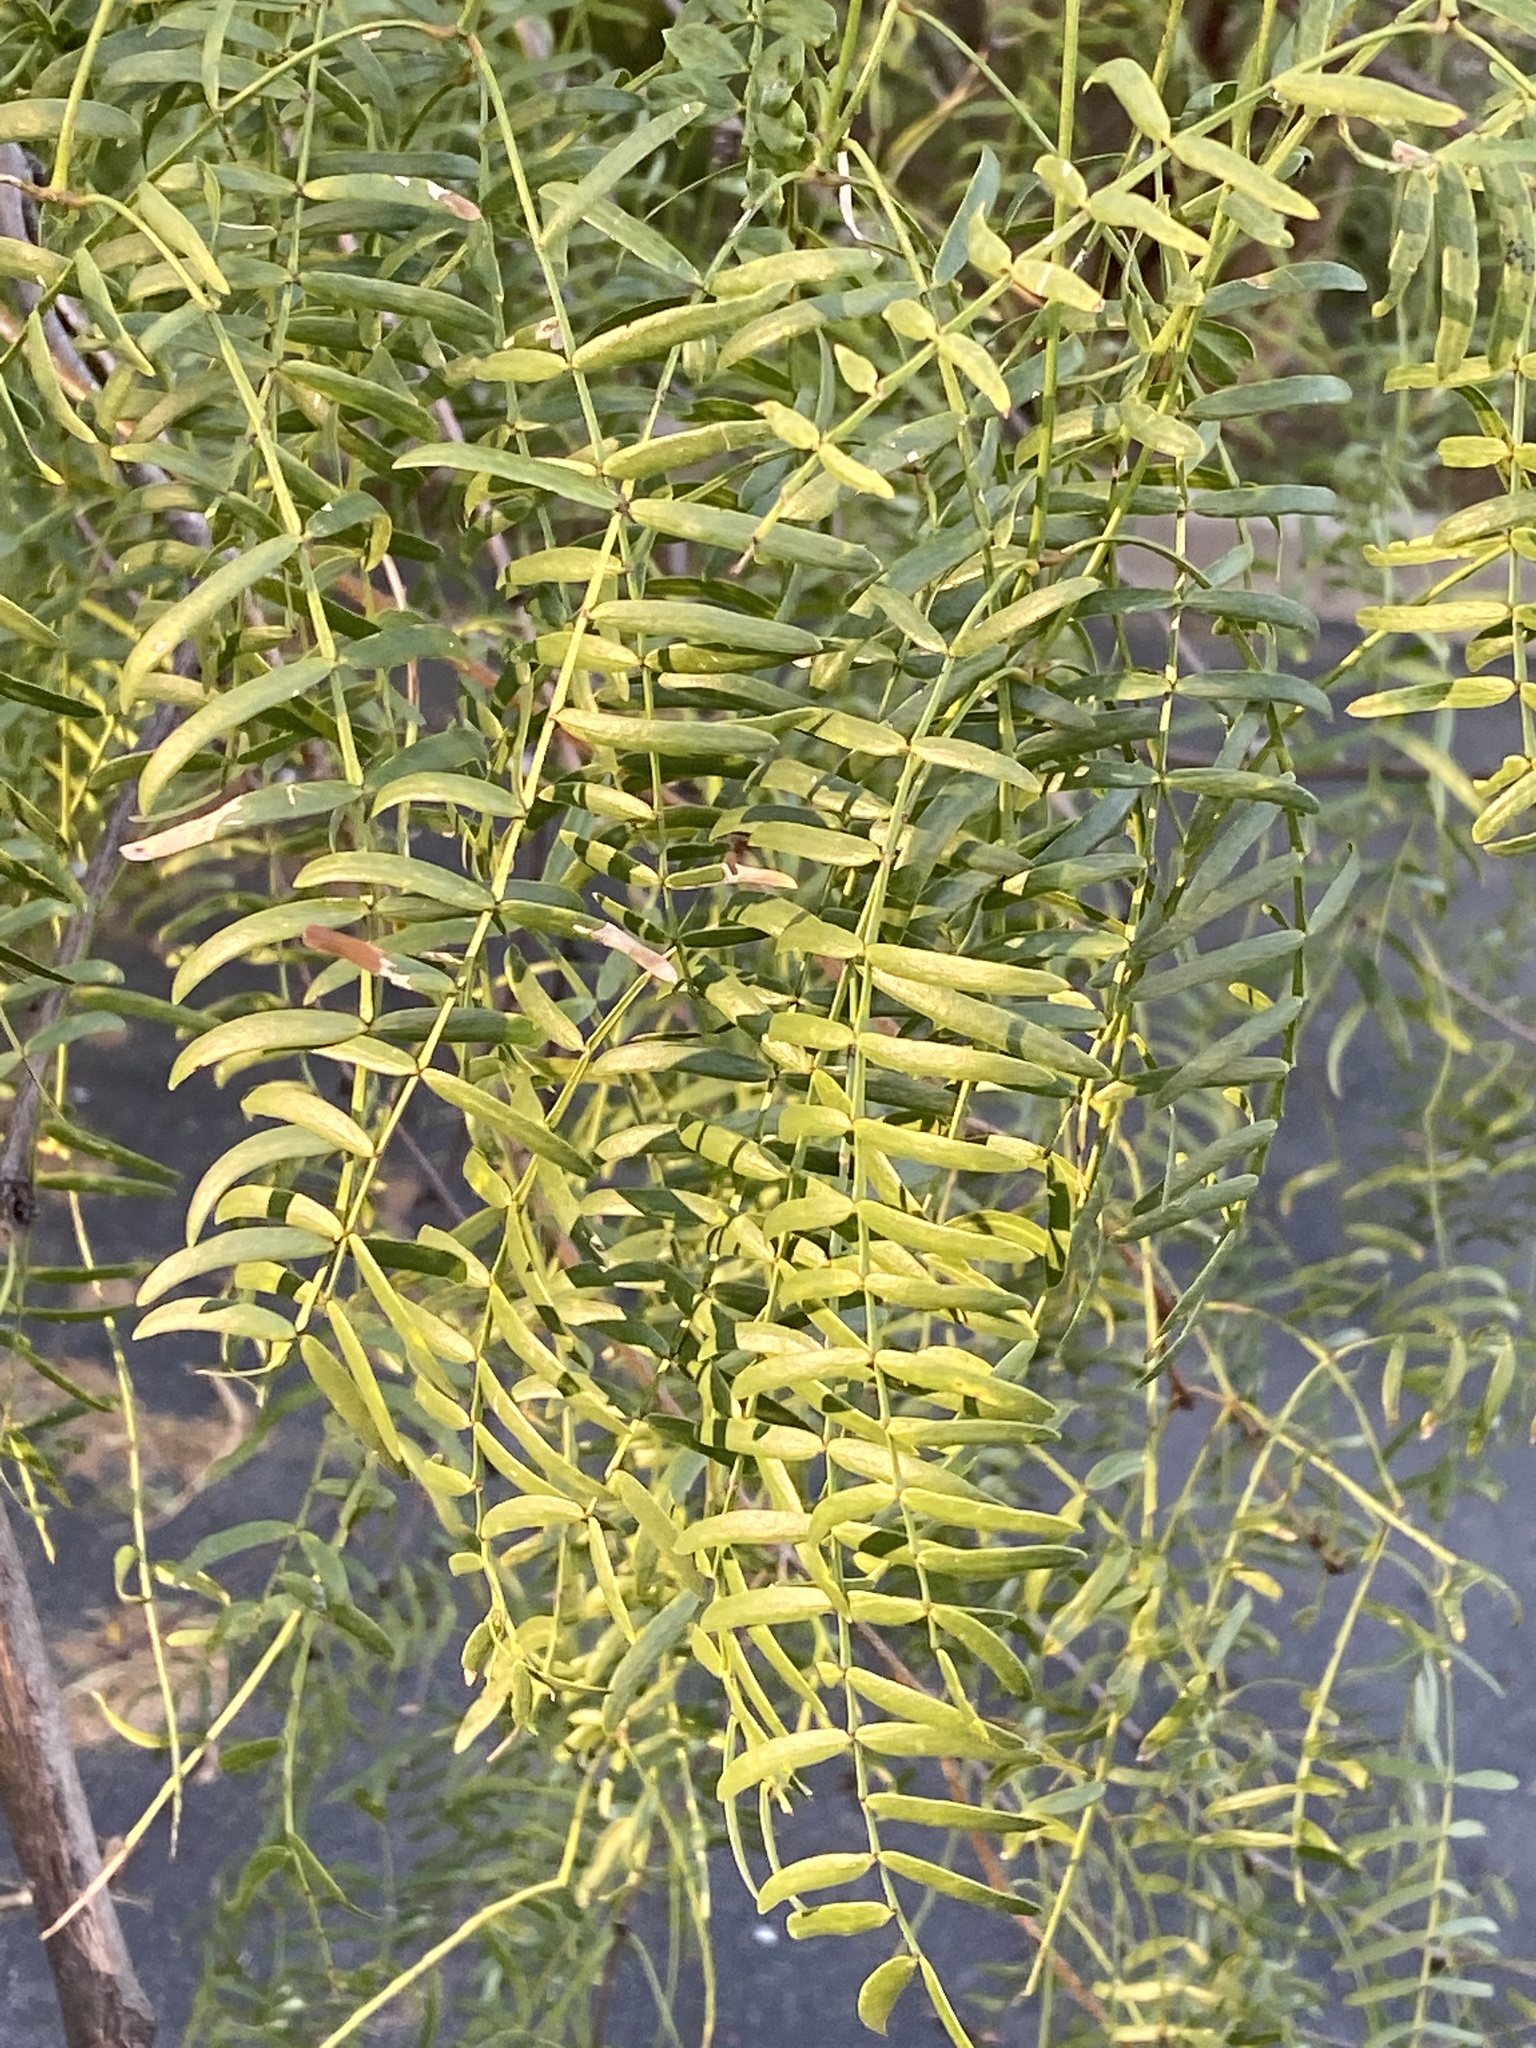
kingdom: Plantae
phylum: Tracheophyta
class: Magnoliopsida
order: Fabales
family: Fabaceae
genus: Prosopis
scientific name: Prosopis glandulosa
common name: Honey mesquite
